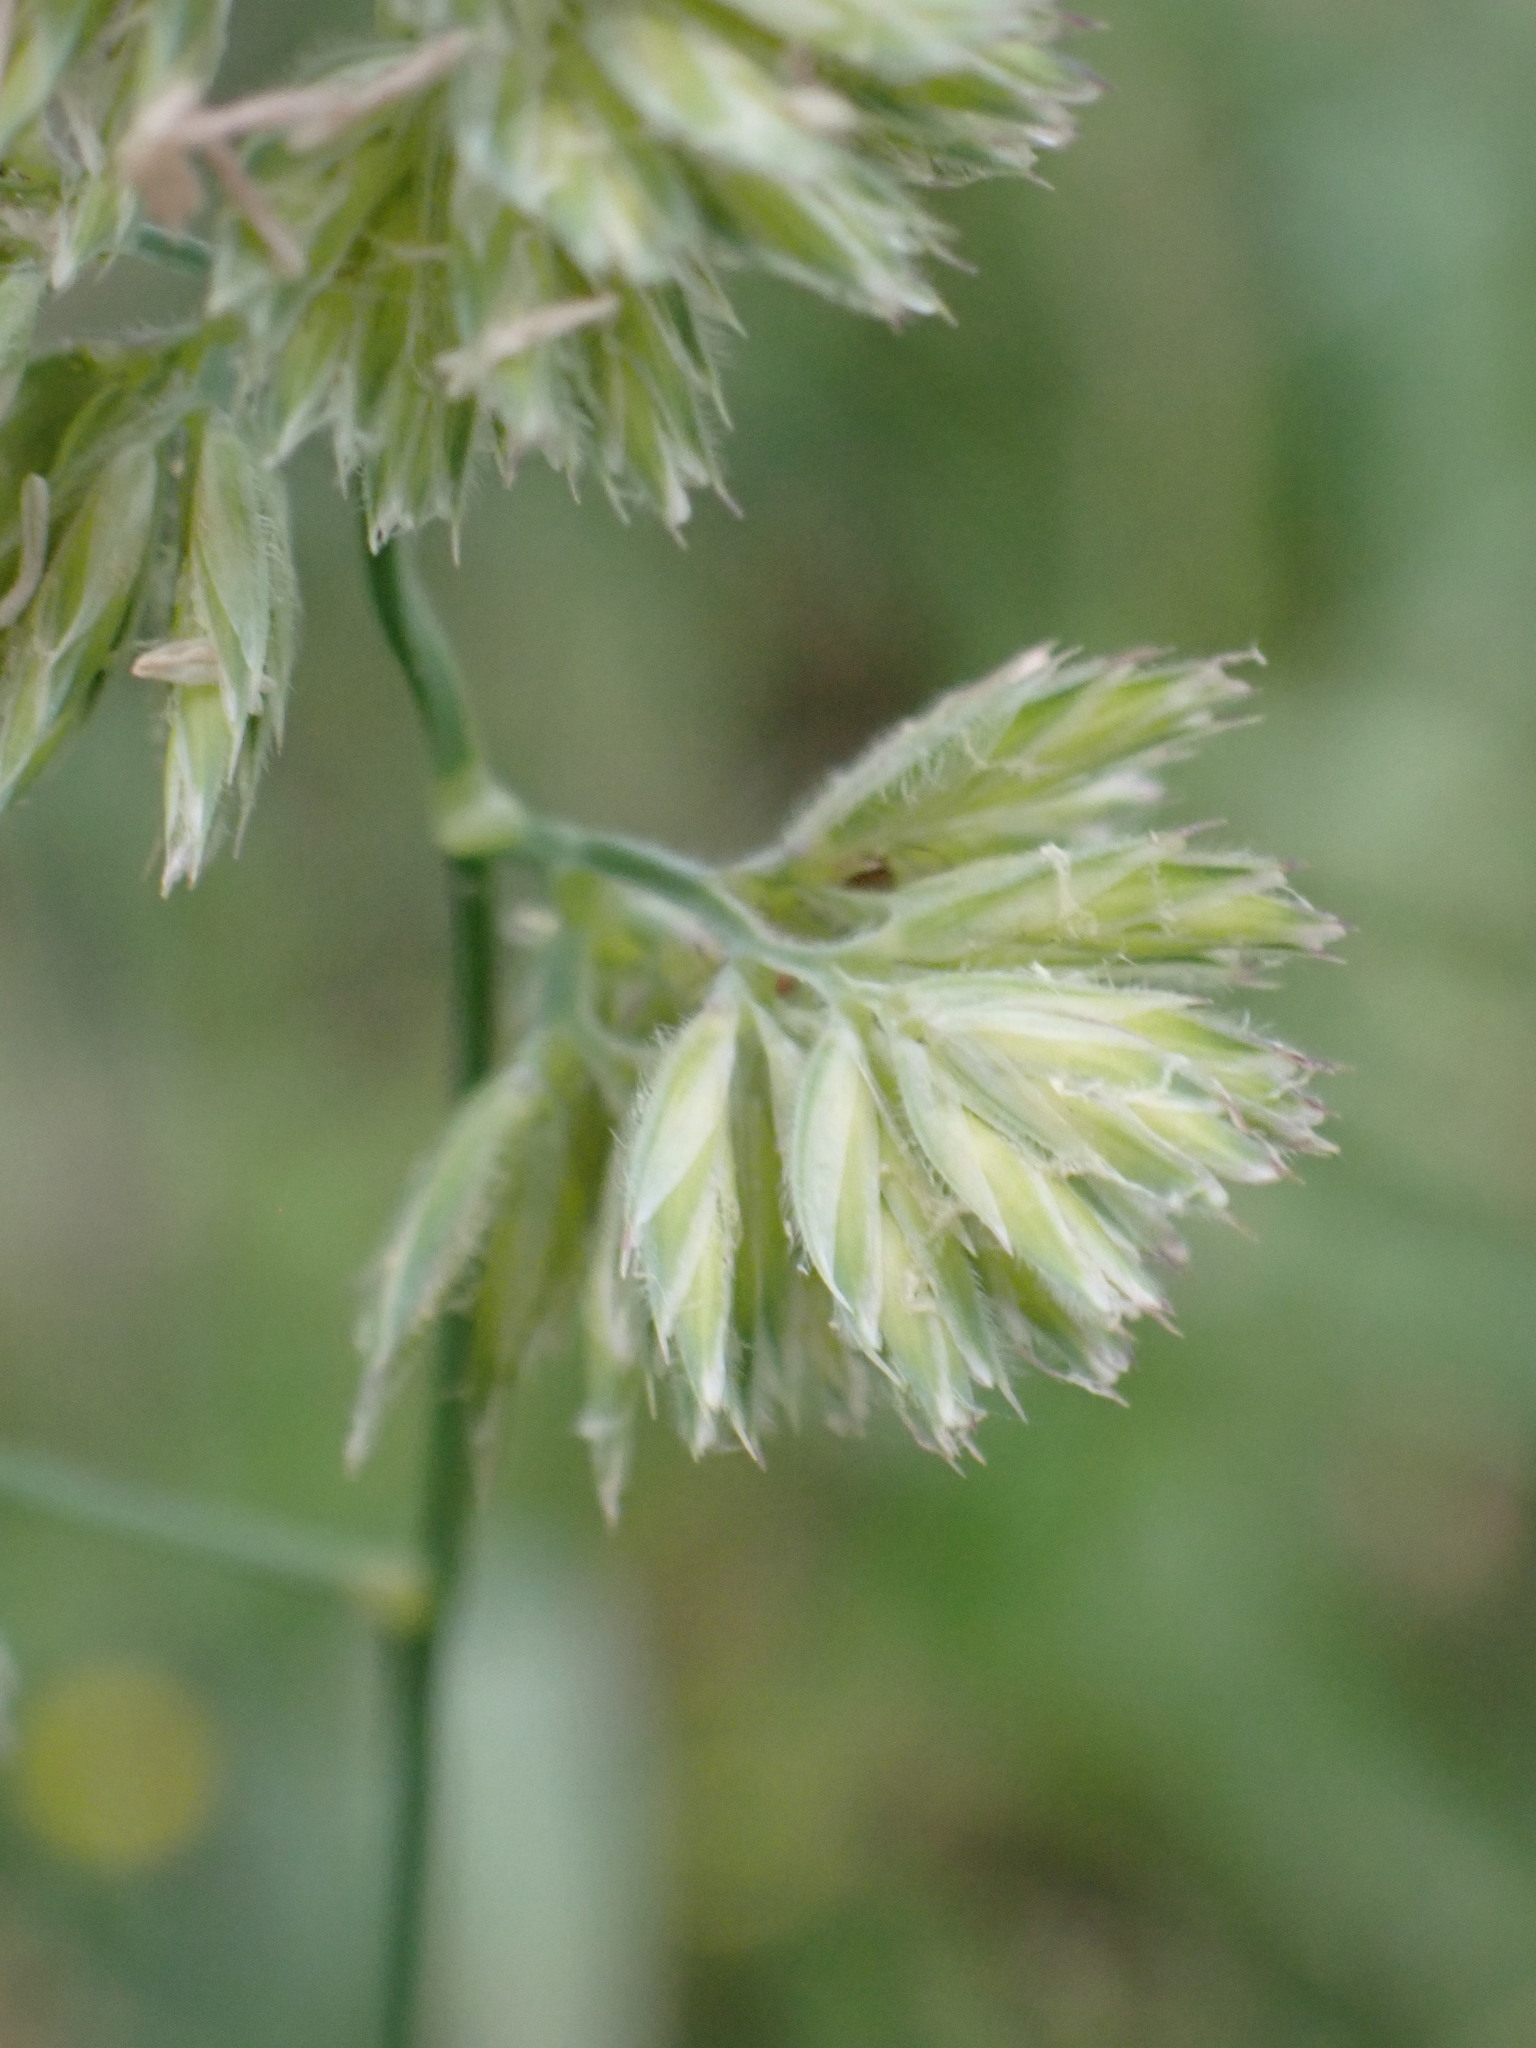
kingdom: Plantae
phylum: Tracheophyta
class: Liliopsida
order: Poales
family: Poaceae
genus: Dactylis
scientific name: Dactylis glomerata
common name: Orchardgrass
